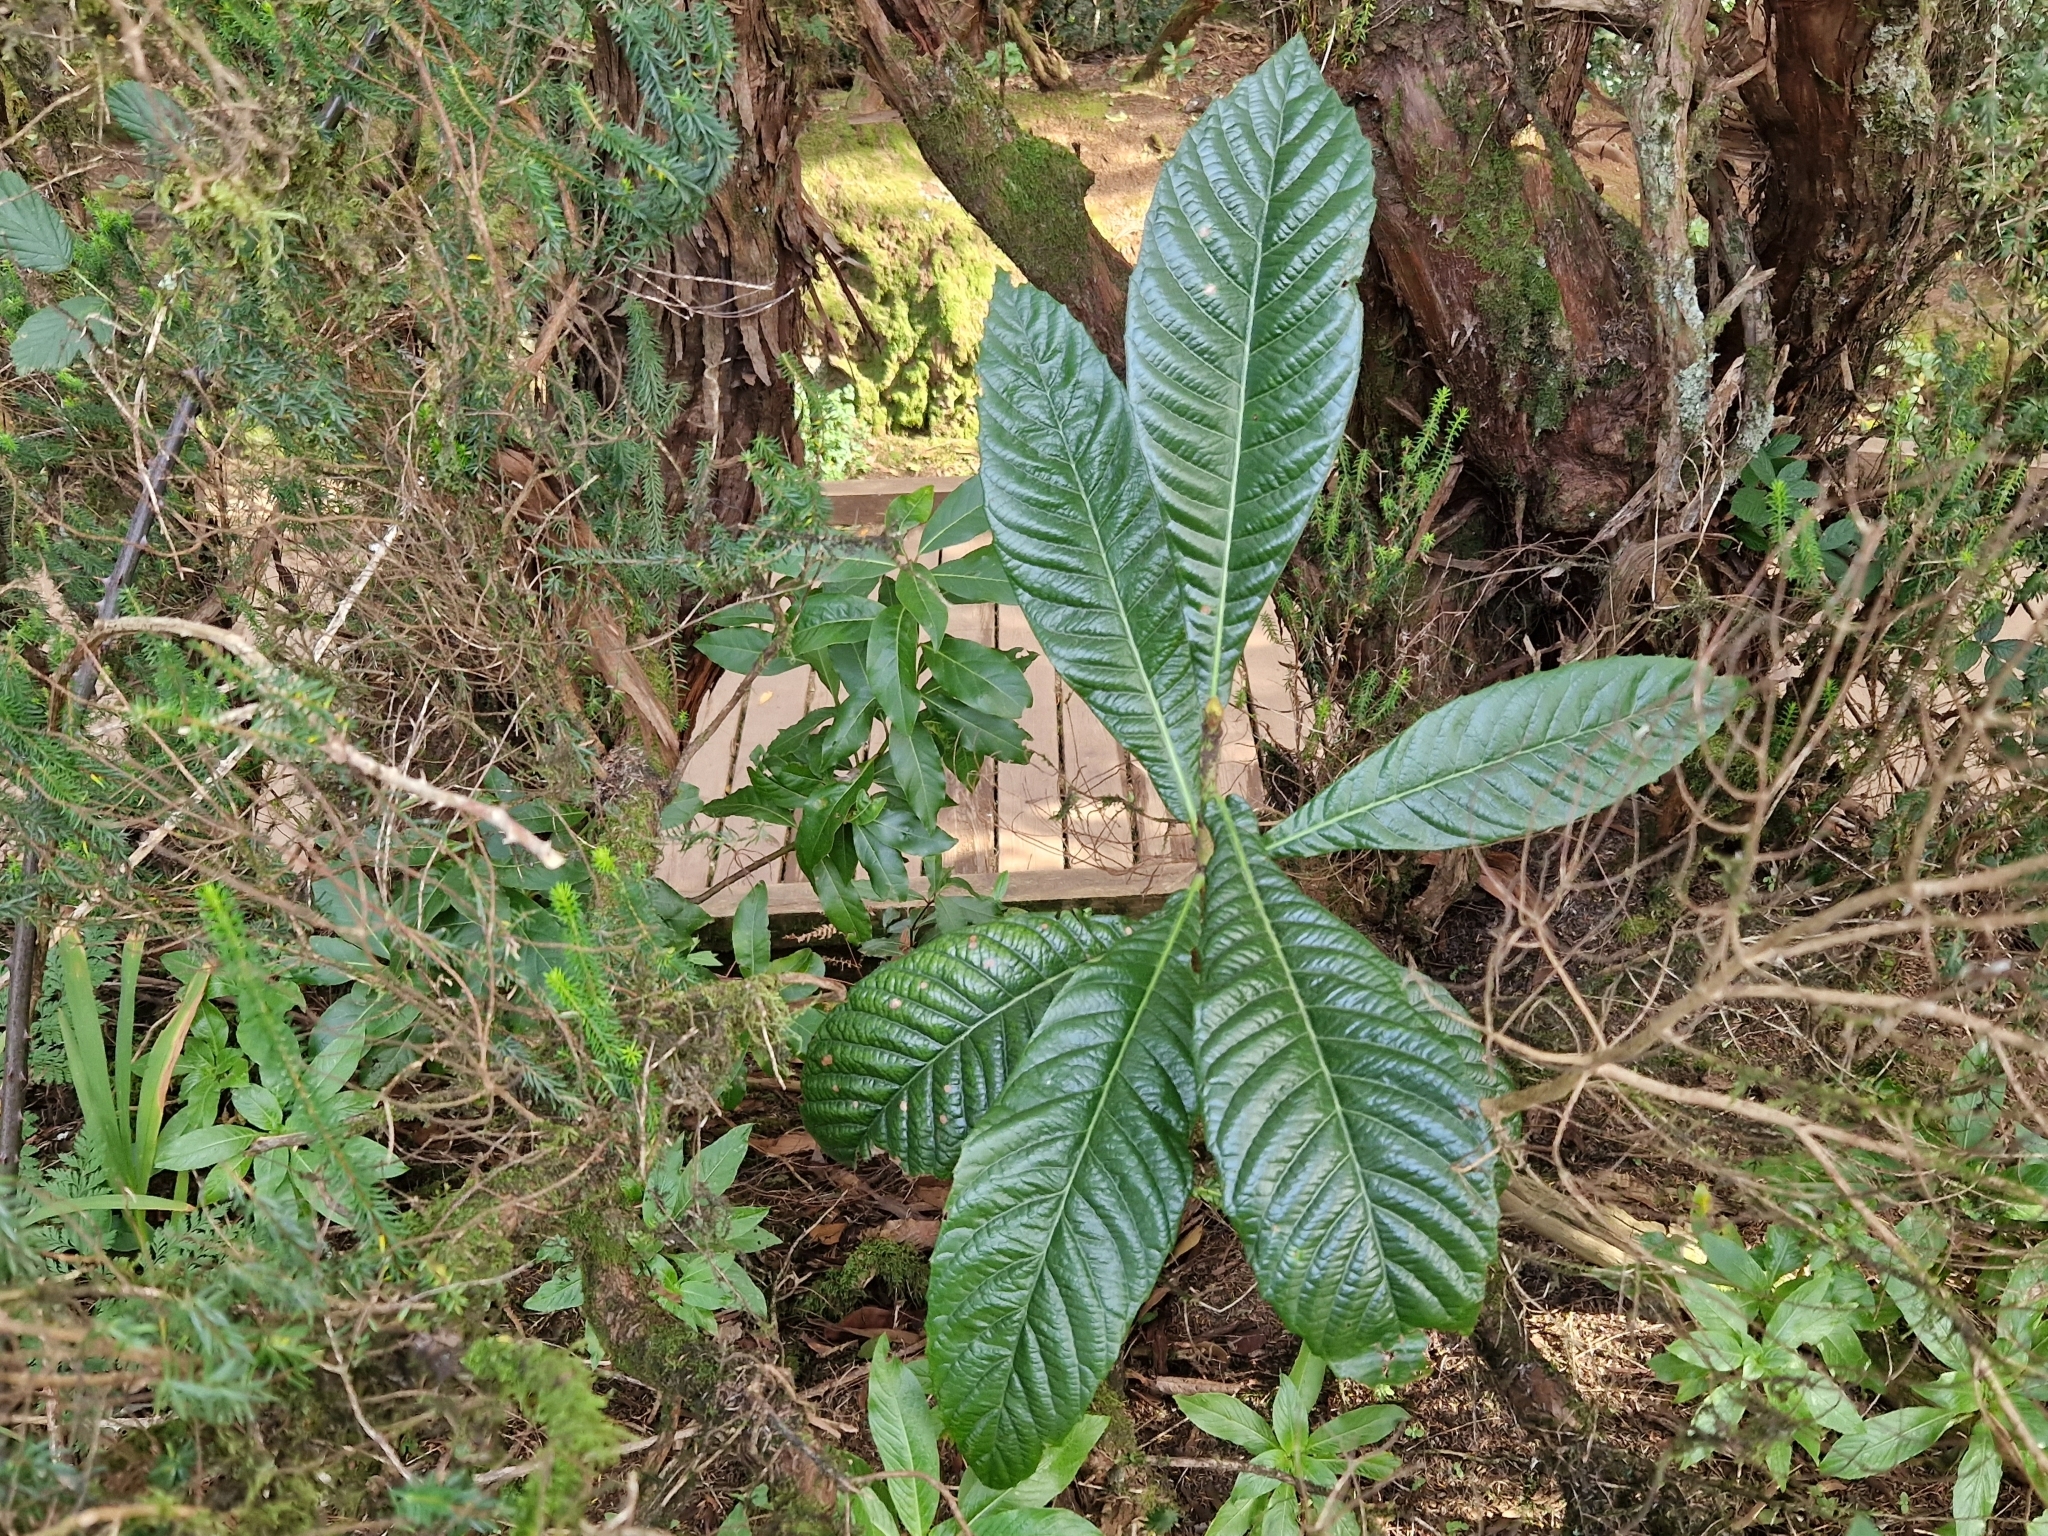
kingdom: Plantae
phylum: Tracheophyta
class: Magnoliopsida
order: Rosales
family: Rosaceae
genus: Rhaphiolepis
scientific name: Rhaphiolepis bibas
